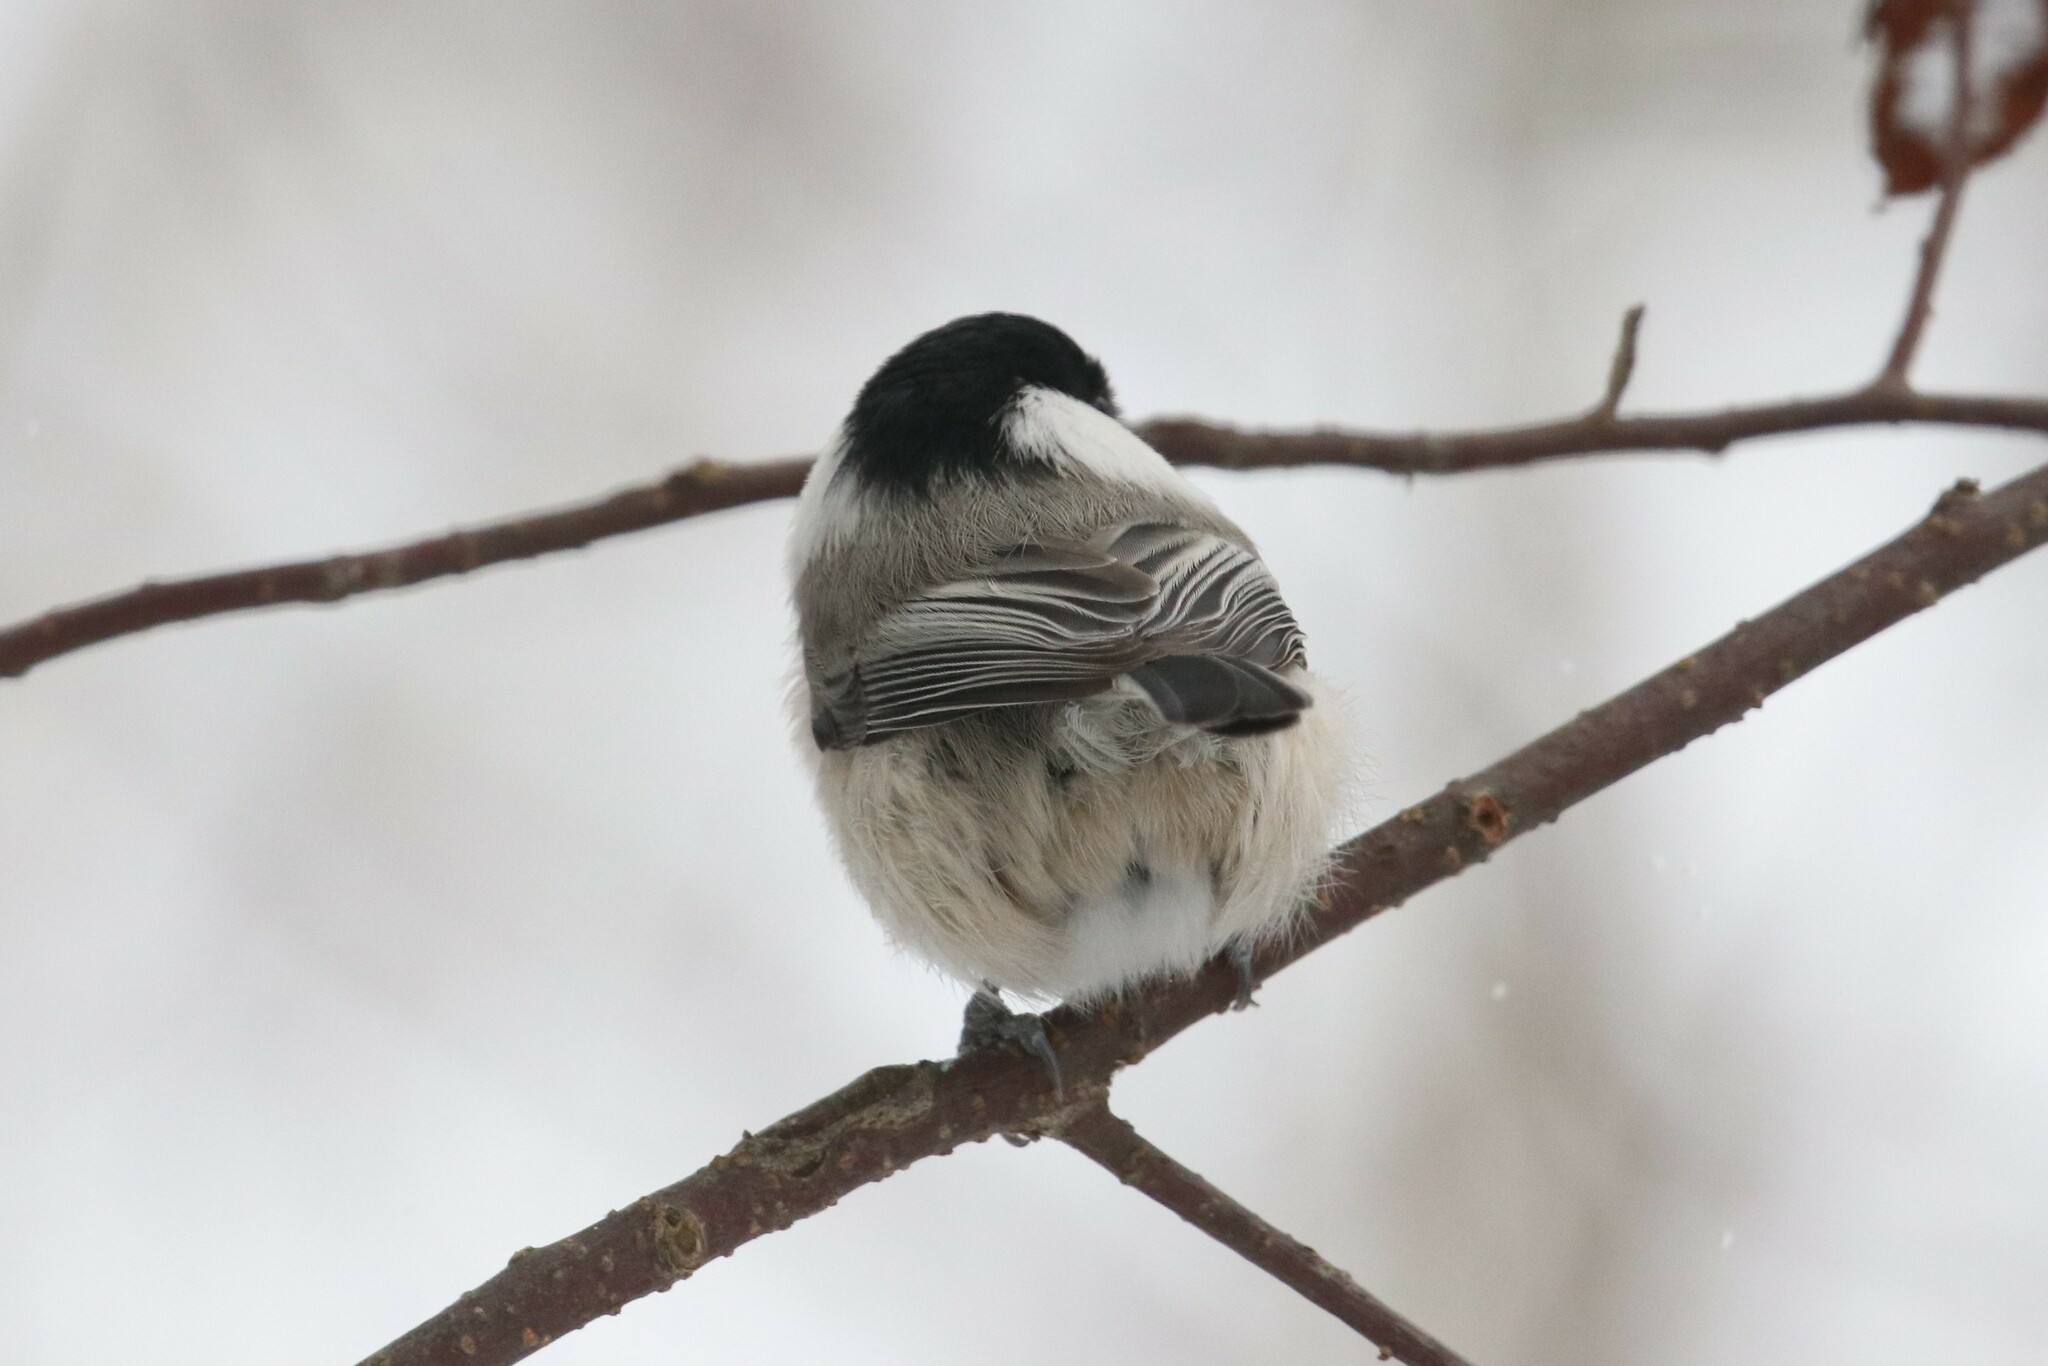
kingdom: Animalia
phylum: Chordata
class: Aves
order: Passeriformes
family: Paridae
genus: Poecile
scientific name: Poecile montanus
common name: Willow tit
